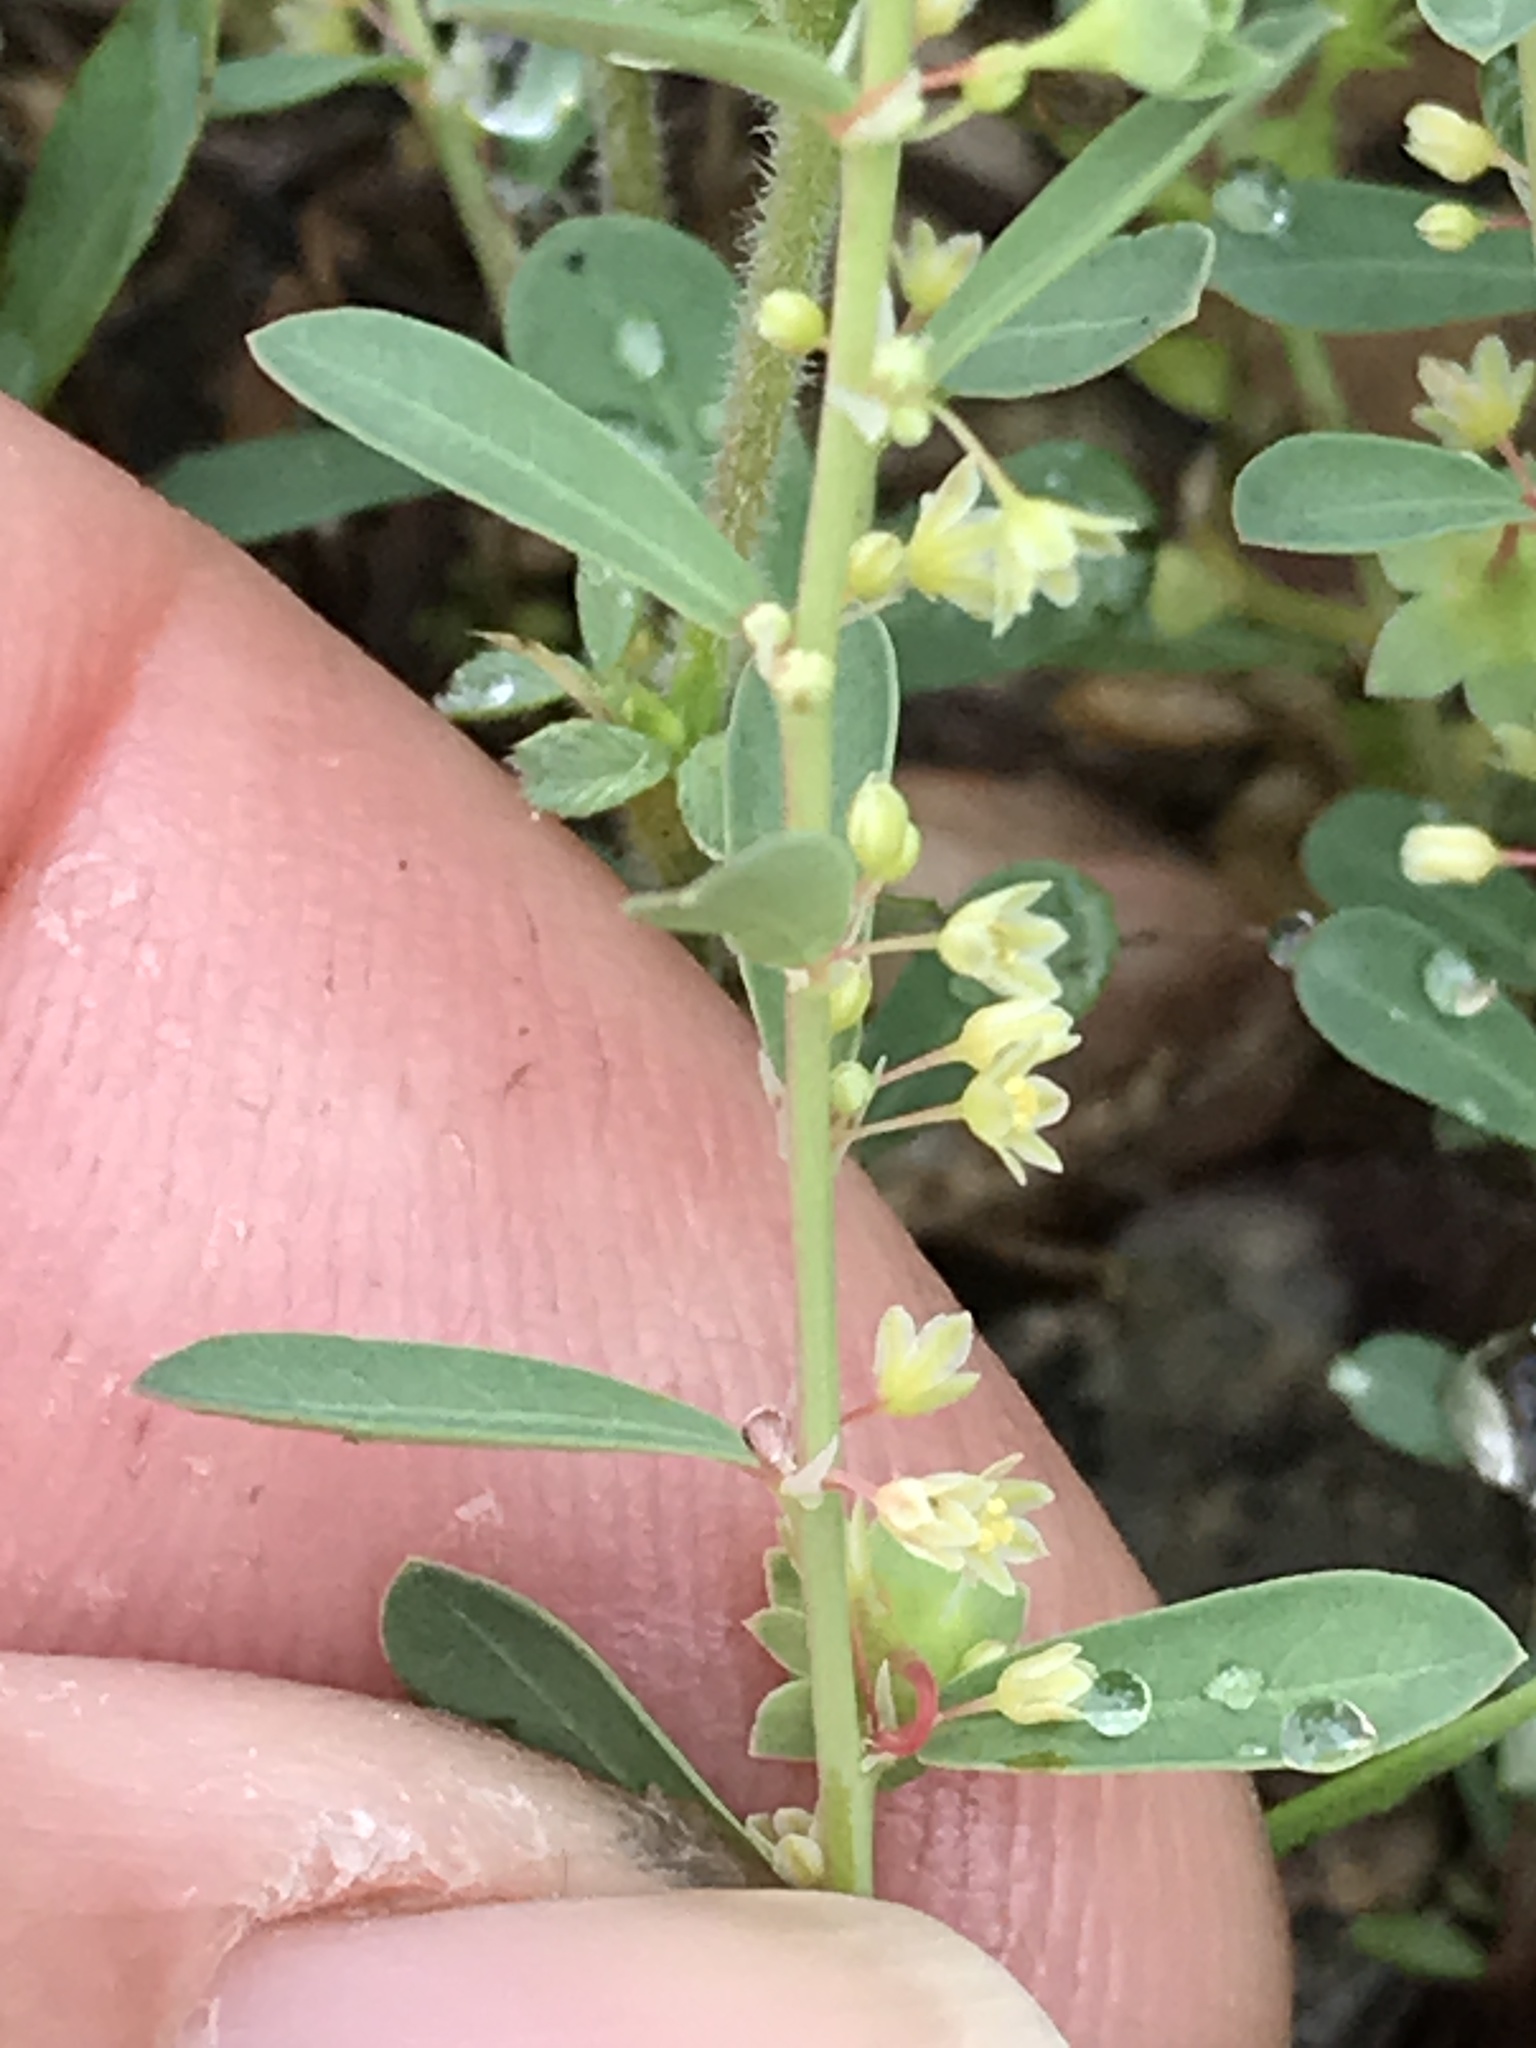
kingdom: Plantae
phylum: Tracheophyta
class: Magnoliopsida
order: Malpighiales
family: Phyllanthaceae
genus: Phyllanthus
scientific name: Phyllanthus polygonoides
